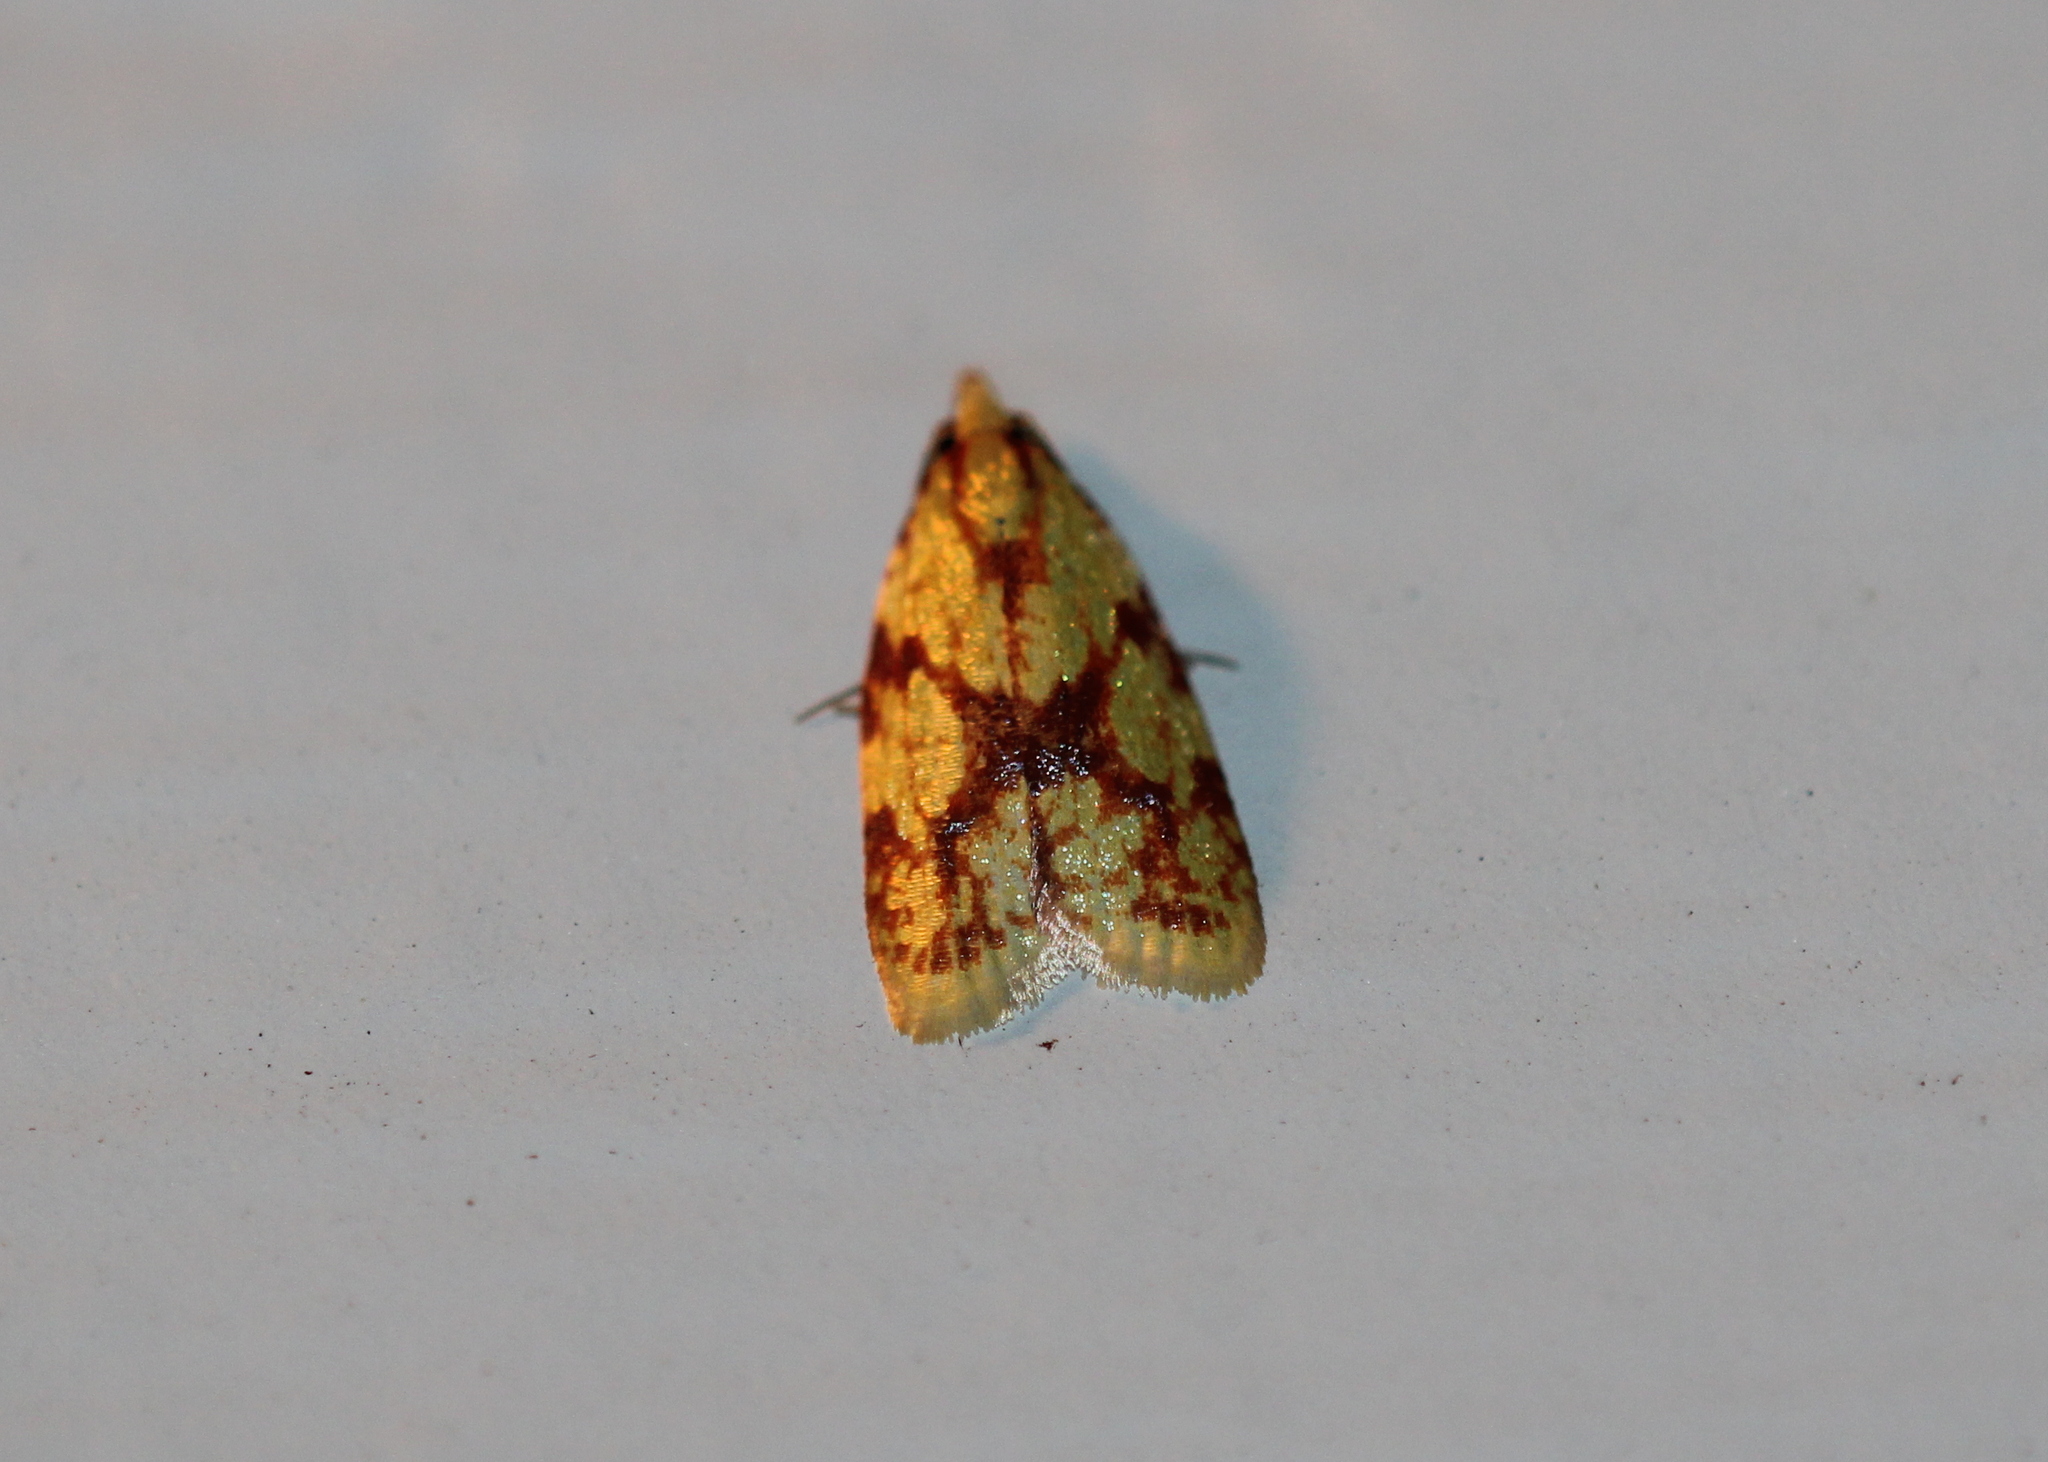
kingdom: Animalia
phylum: Arthropoda
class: Insecta
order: Lepidoptera
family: Tortricidae
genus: Sparganothis
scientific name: Sparganothis sulfureana
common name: Sparganothis fruitworm moth
